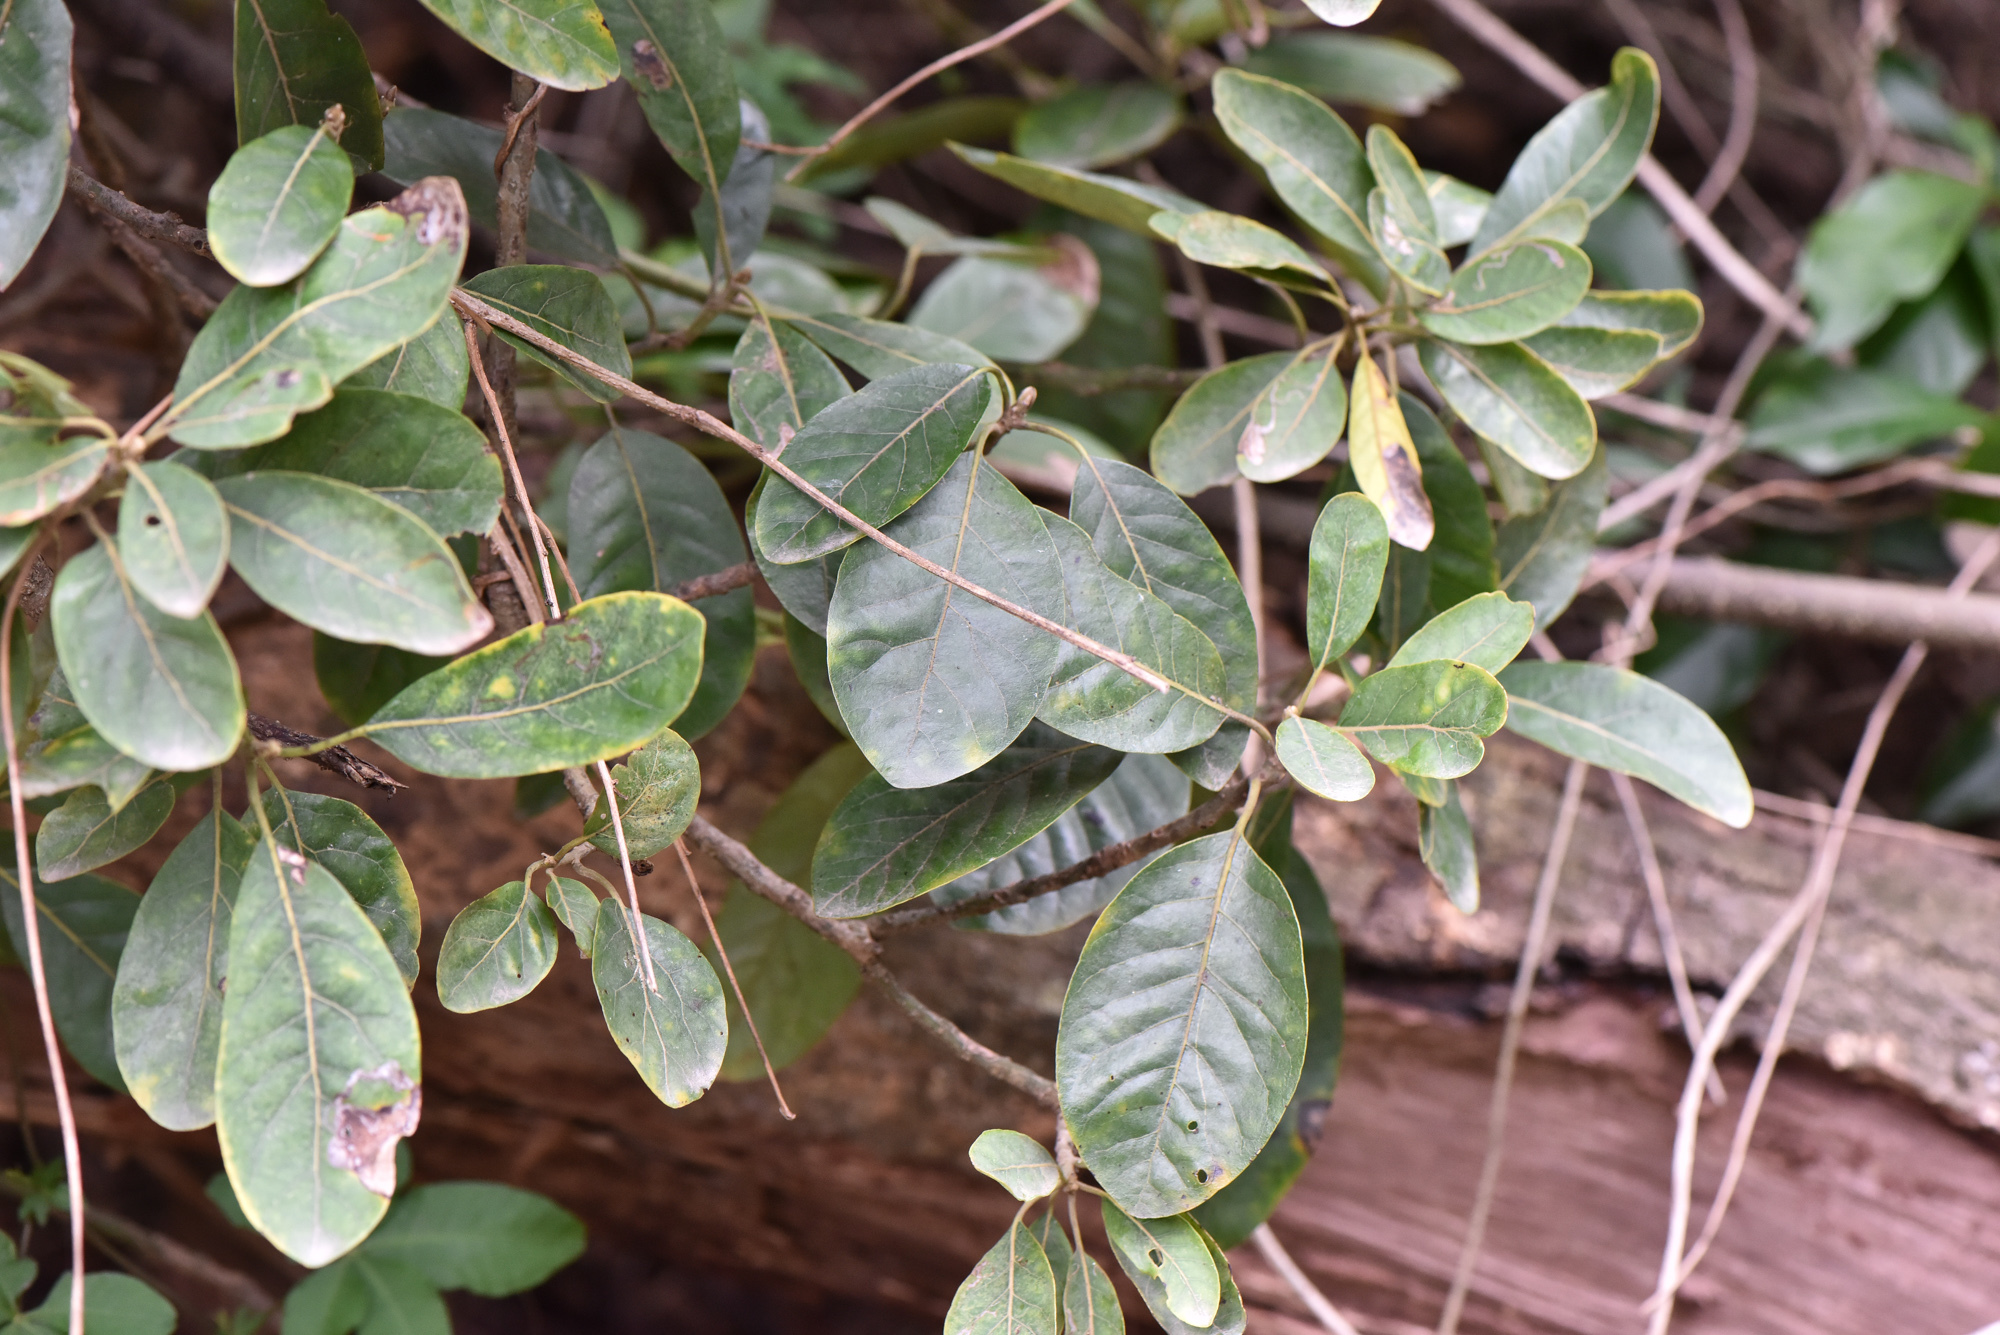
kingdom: Plantae
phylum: Tracheophyta
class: Magnoliopsida
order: Laurales
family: Lauraceae
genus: Litsea
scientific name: Litsea glutinosa
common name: Indian-laurel
